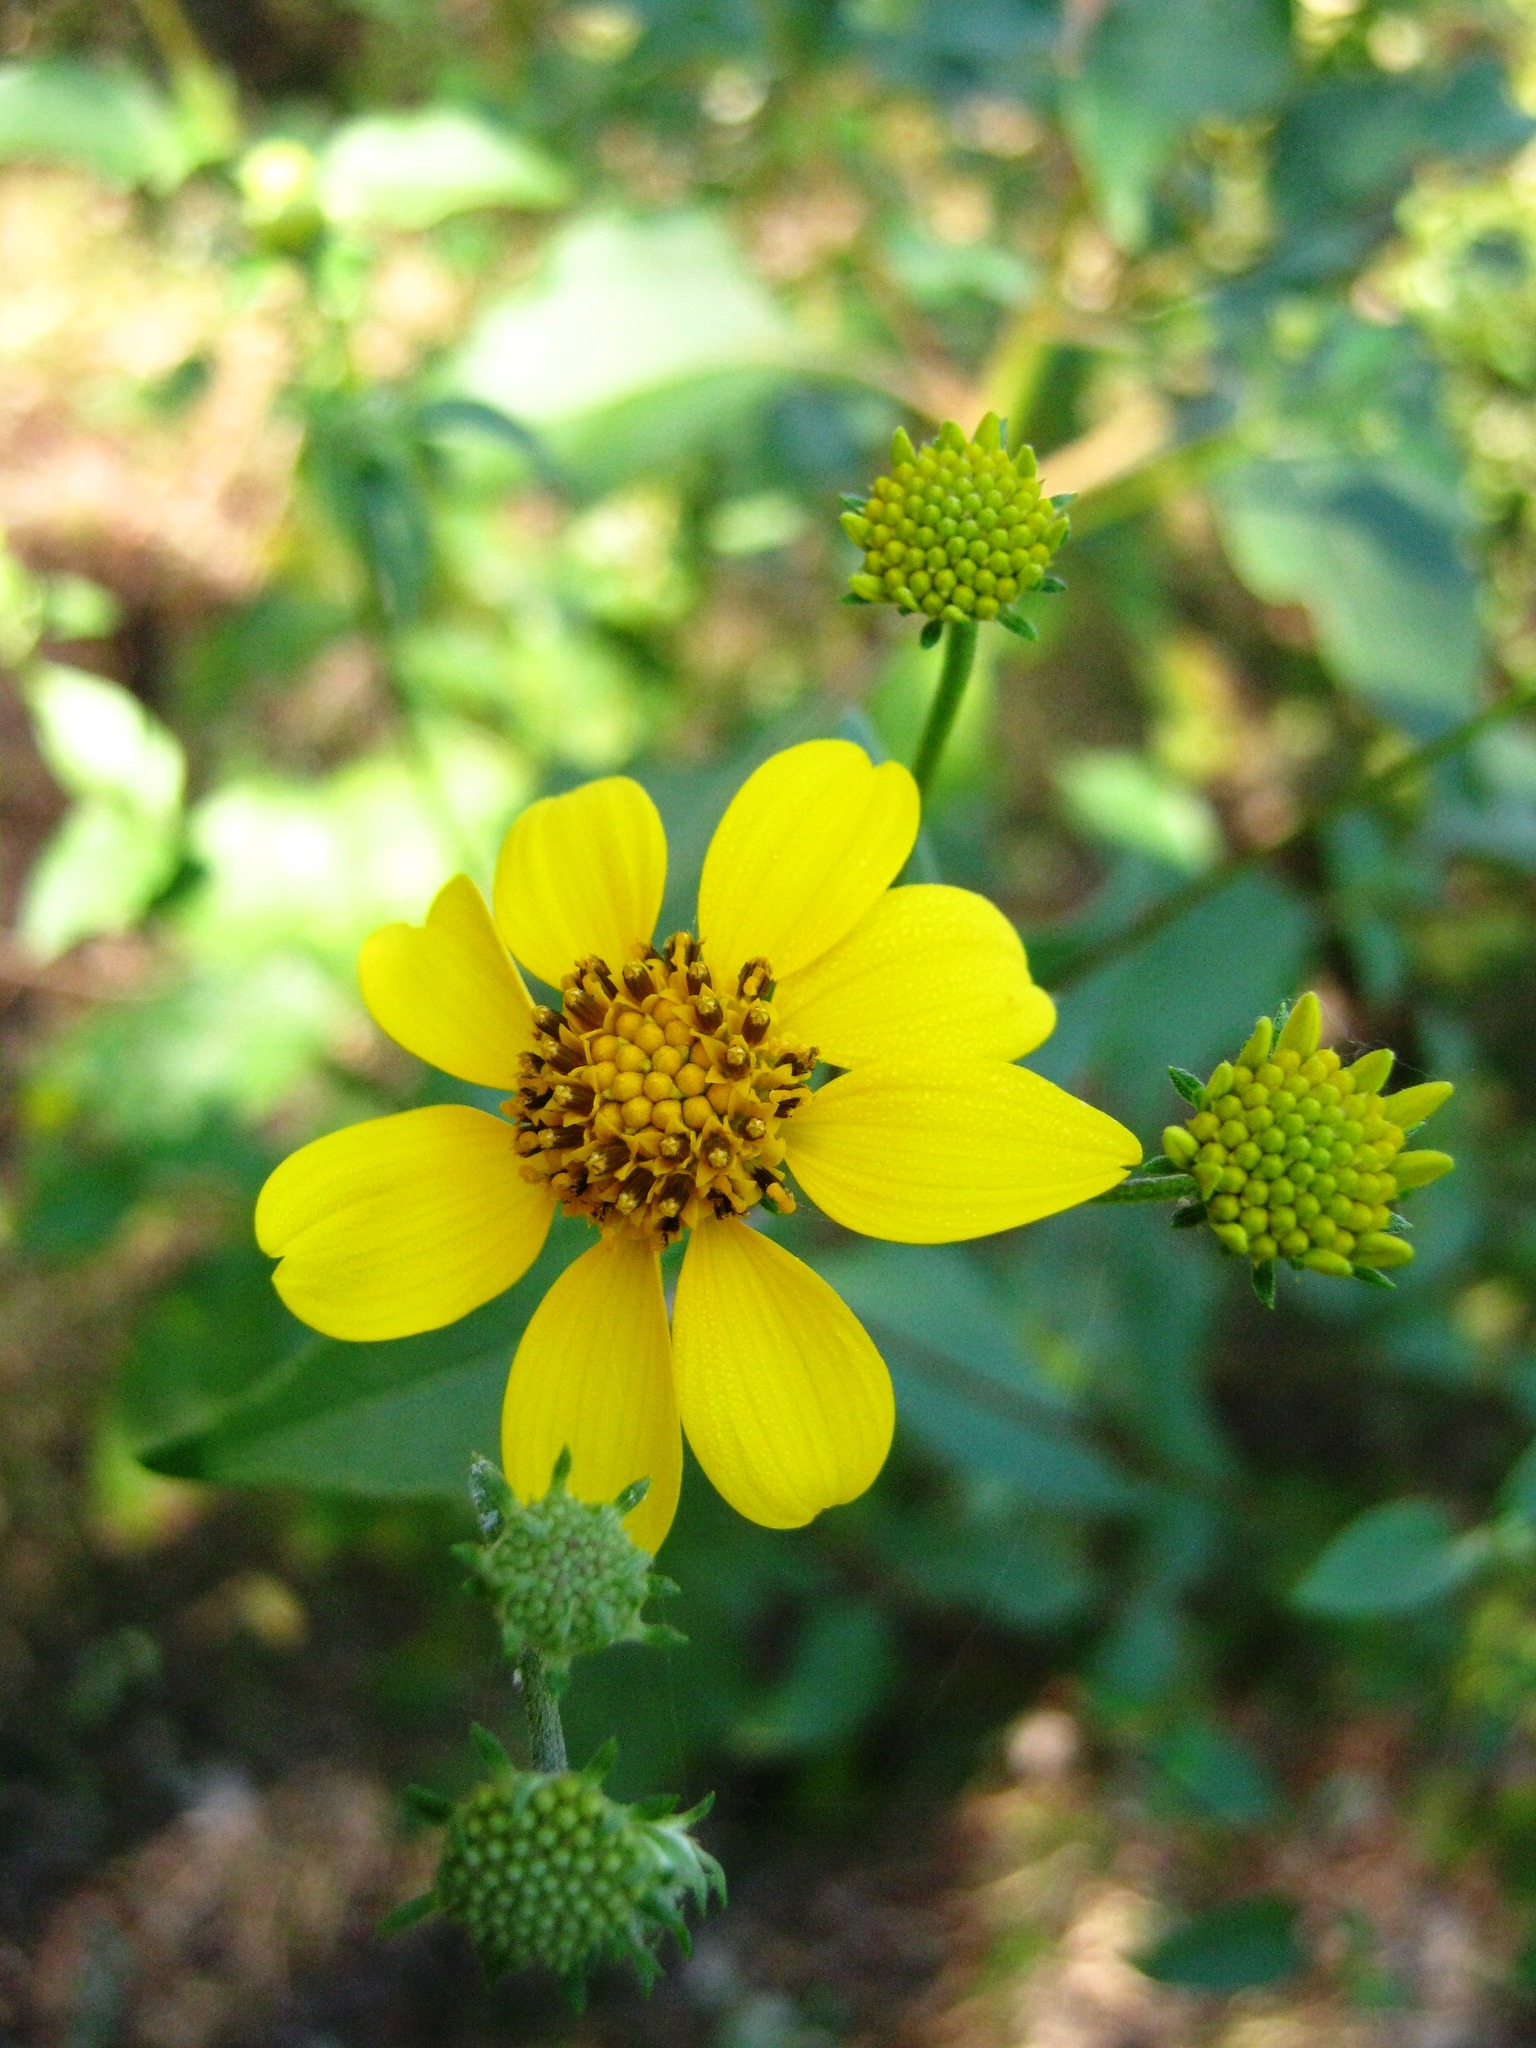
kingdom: Plantae
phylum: Tracheophyta
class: Magnoliopsida
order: Asterales
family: Asteraceae
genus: Viguiera
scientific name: Viguiera dentata
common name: Toothleaf
